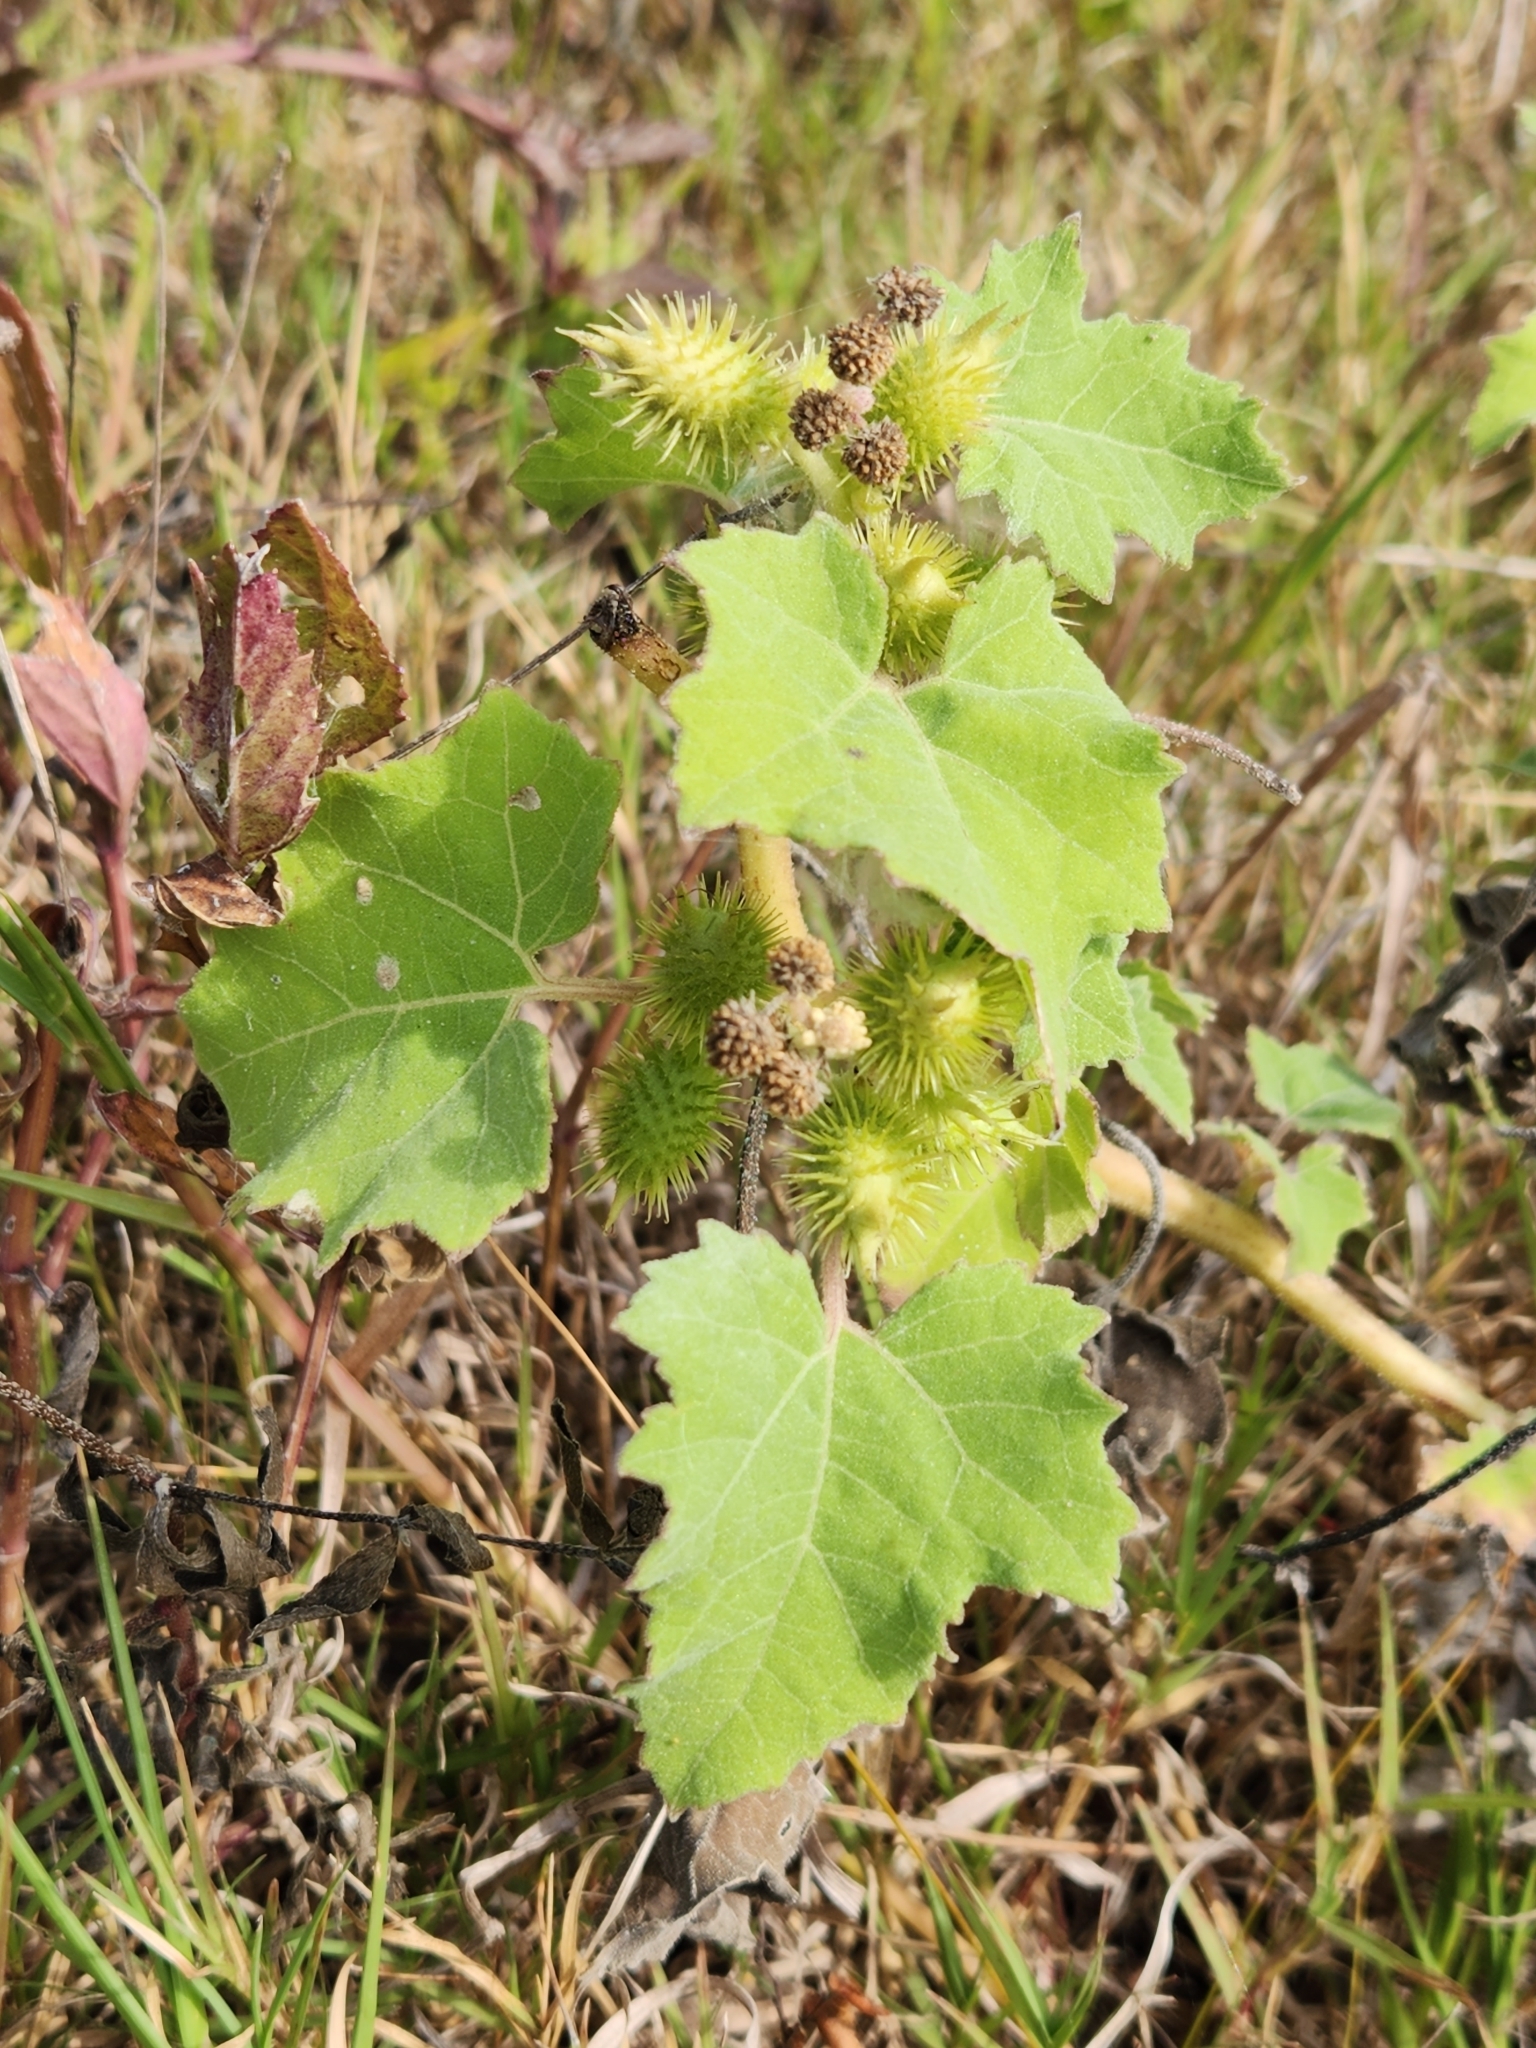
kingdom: Plantae
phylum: Tracheophyta
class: Magnoliopsida
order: Asterales
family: Asteraceae
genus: Xanthium
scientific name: Xanthium strumarium
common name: Rough cocklebur
